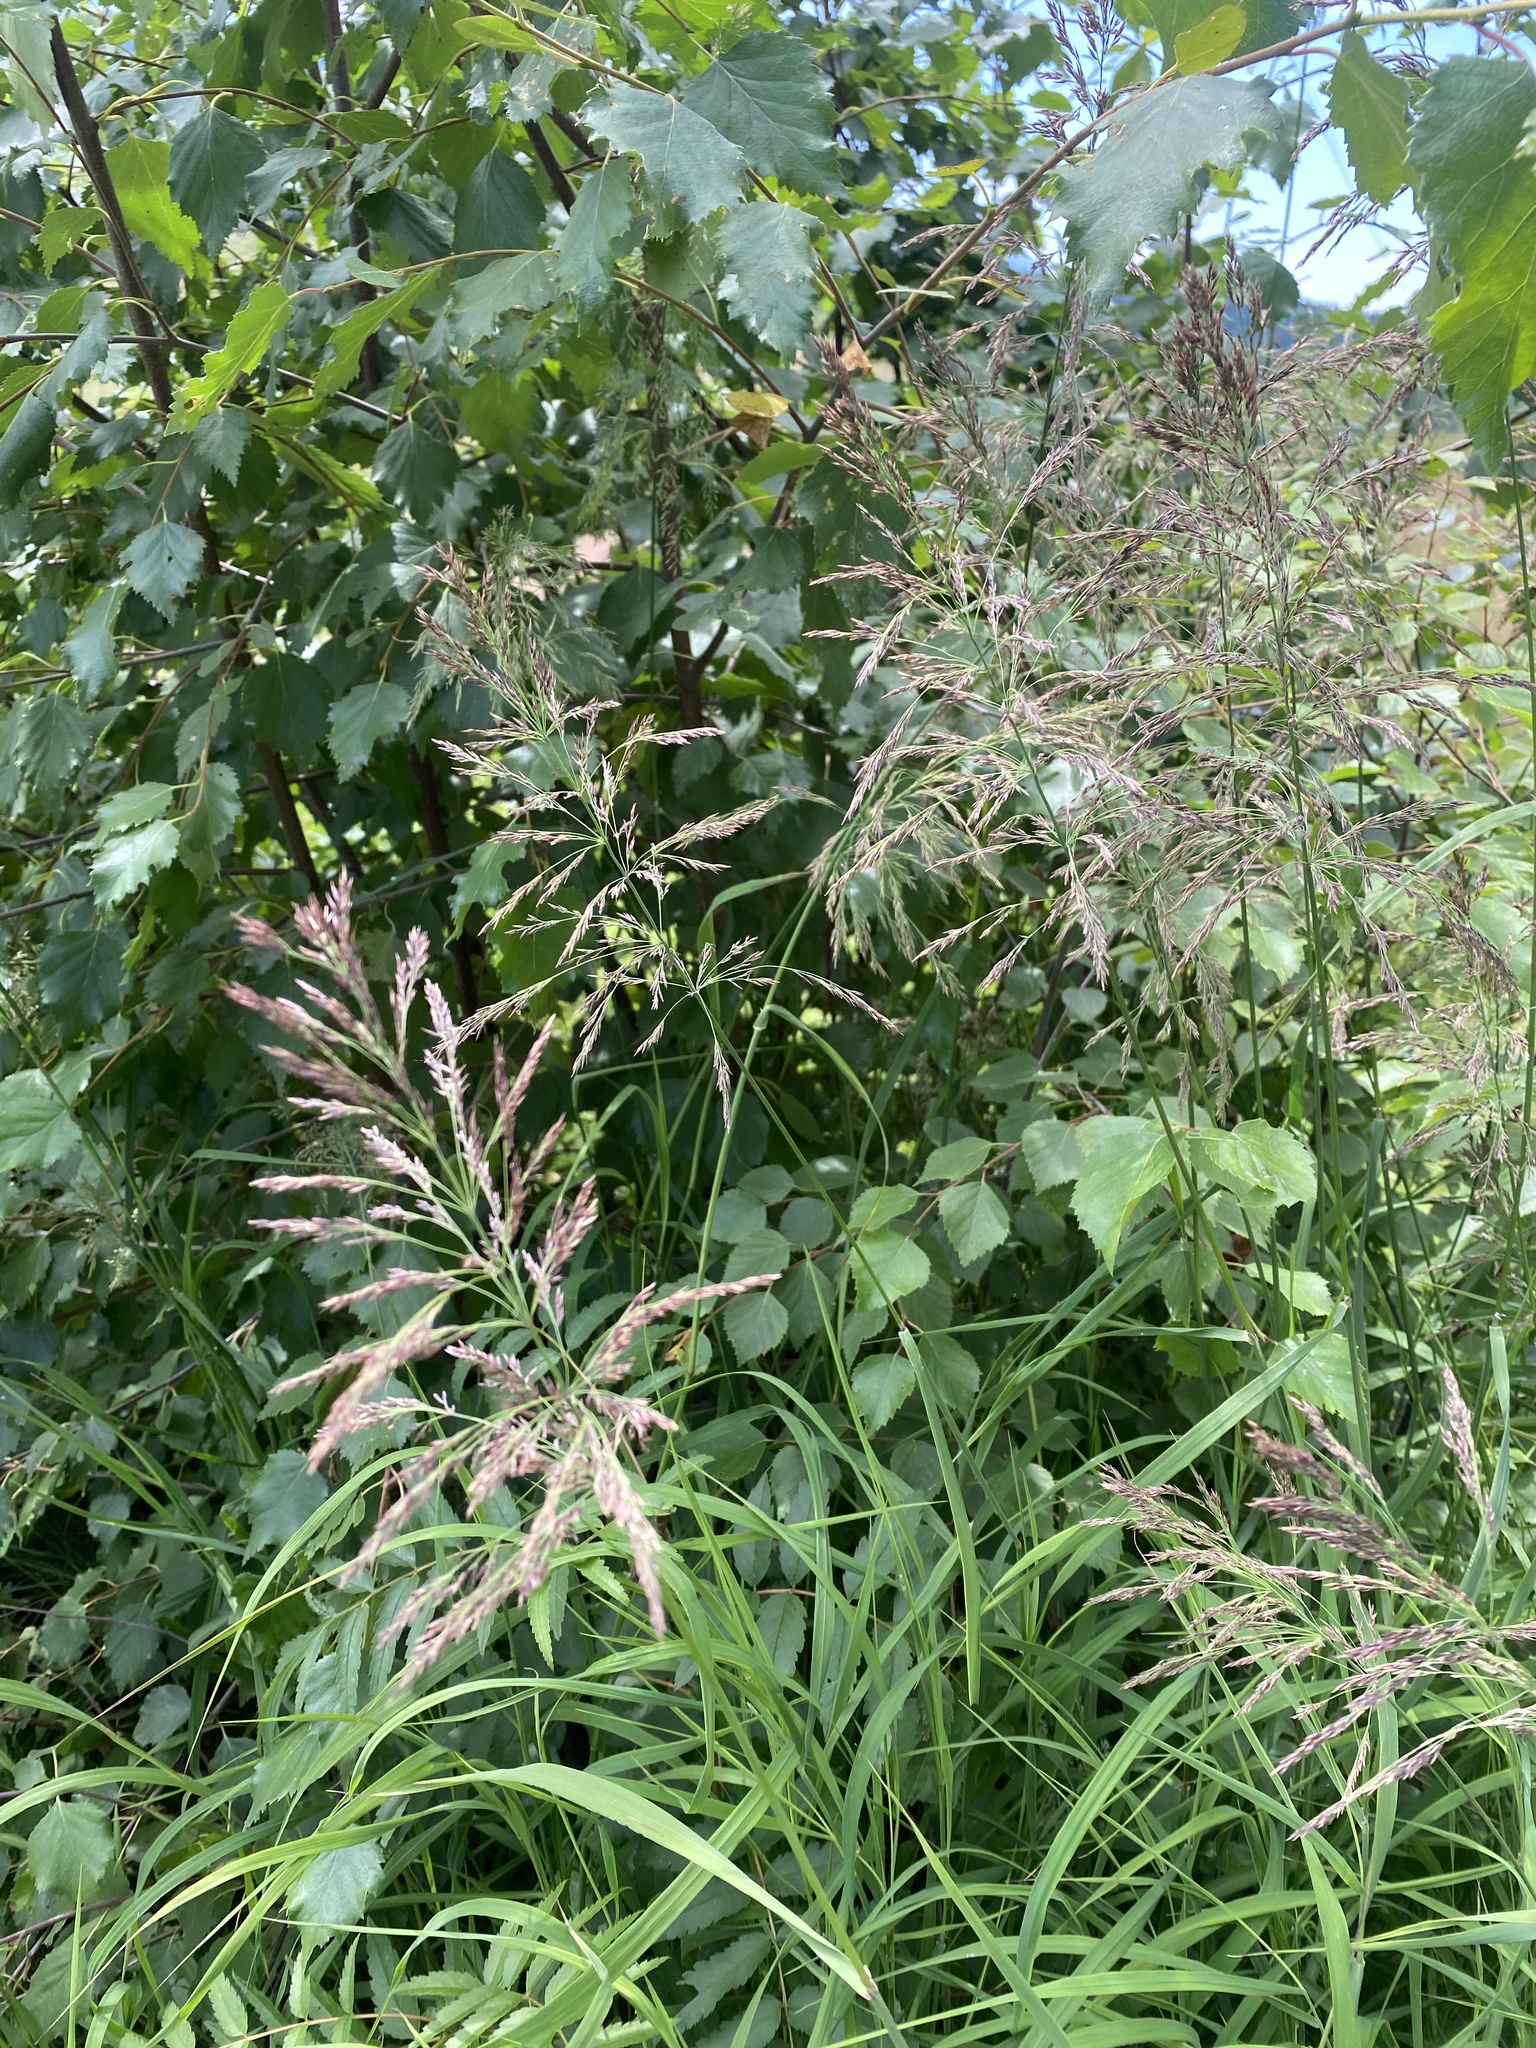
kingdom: Plantae
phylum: Tracheophyta
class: Liliopsida
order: Poales
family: Poaceae
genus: Calamagrostis
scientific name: Calamagrostis purpurea
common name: Scandinavian small-reed
